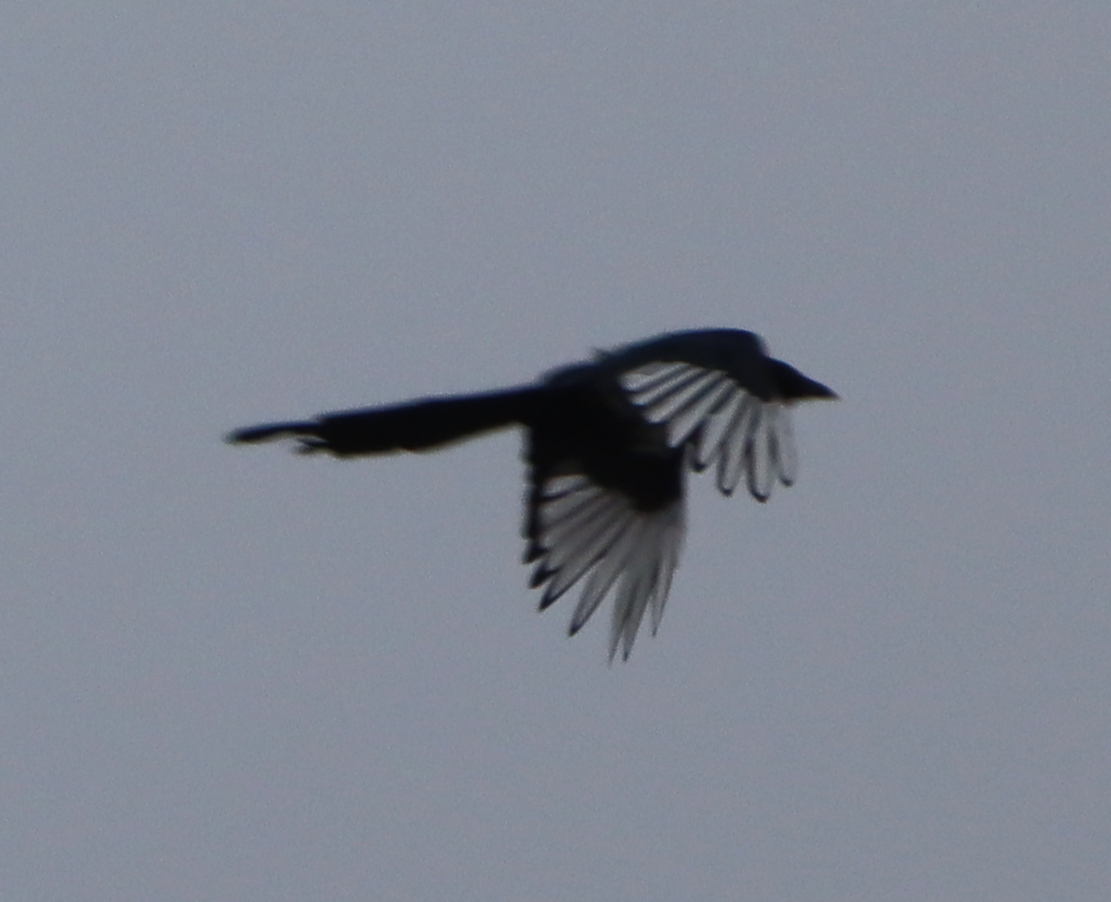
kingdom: Animalia
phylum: Chordata
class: Aves
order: Passeriformes
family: Corvidae
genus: Pica
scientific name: Pica hudsonia
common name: Black-billed magpie
